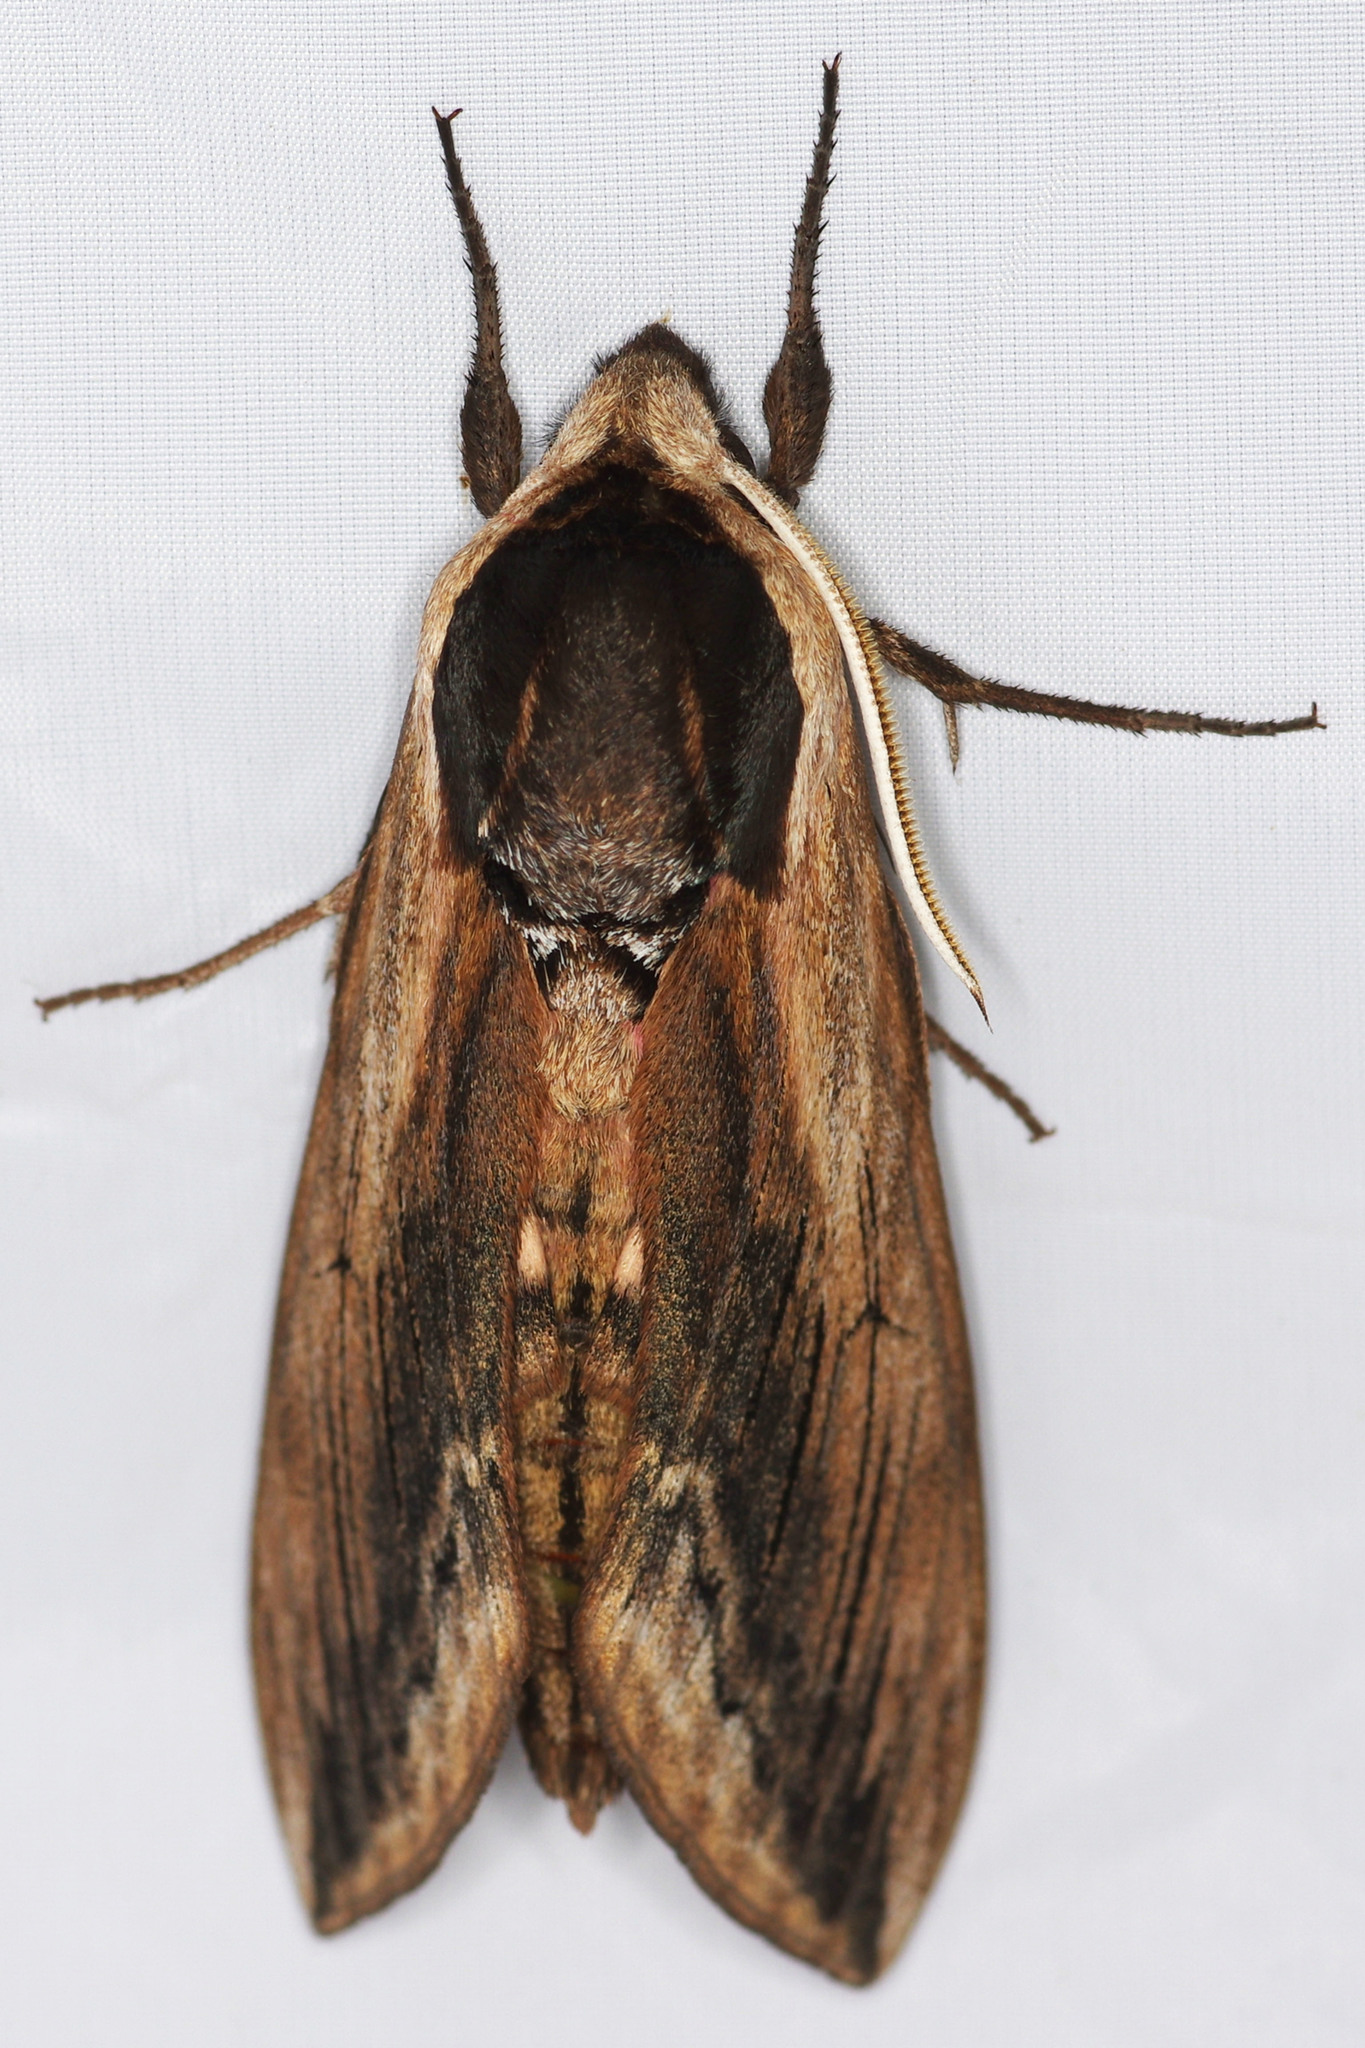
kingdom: Animalia
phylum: Arthropoda
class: Insecta
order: Lepidoptera
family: Sphingidae
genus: Sphinx
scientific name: Sphinx ligustri
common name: Privet hawk-moth
